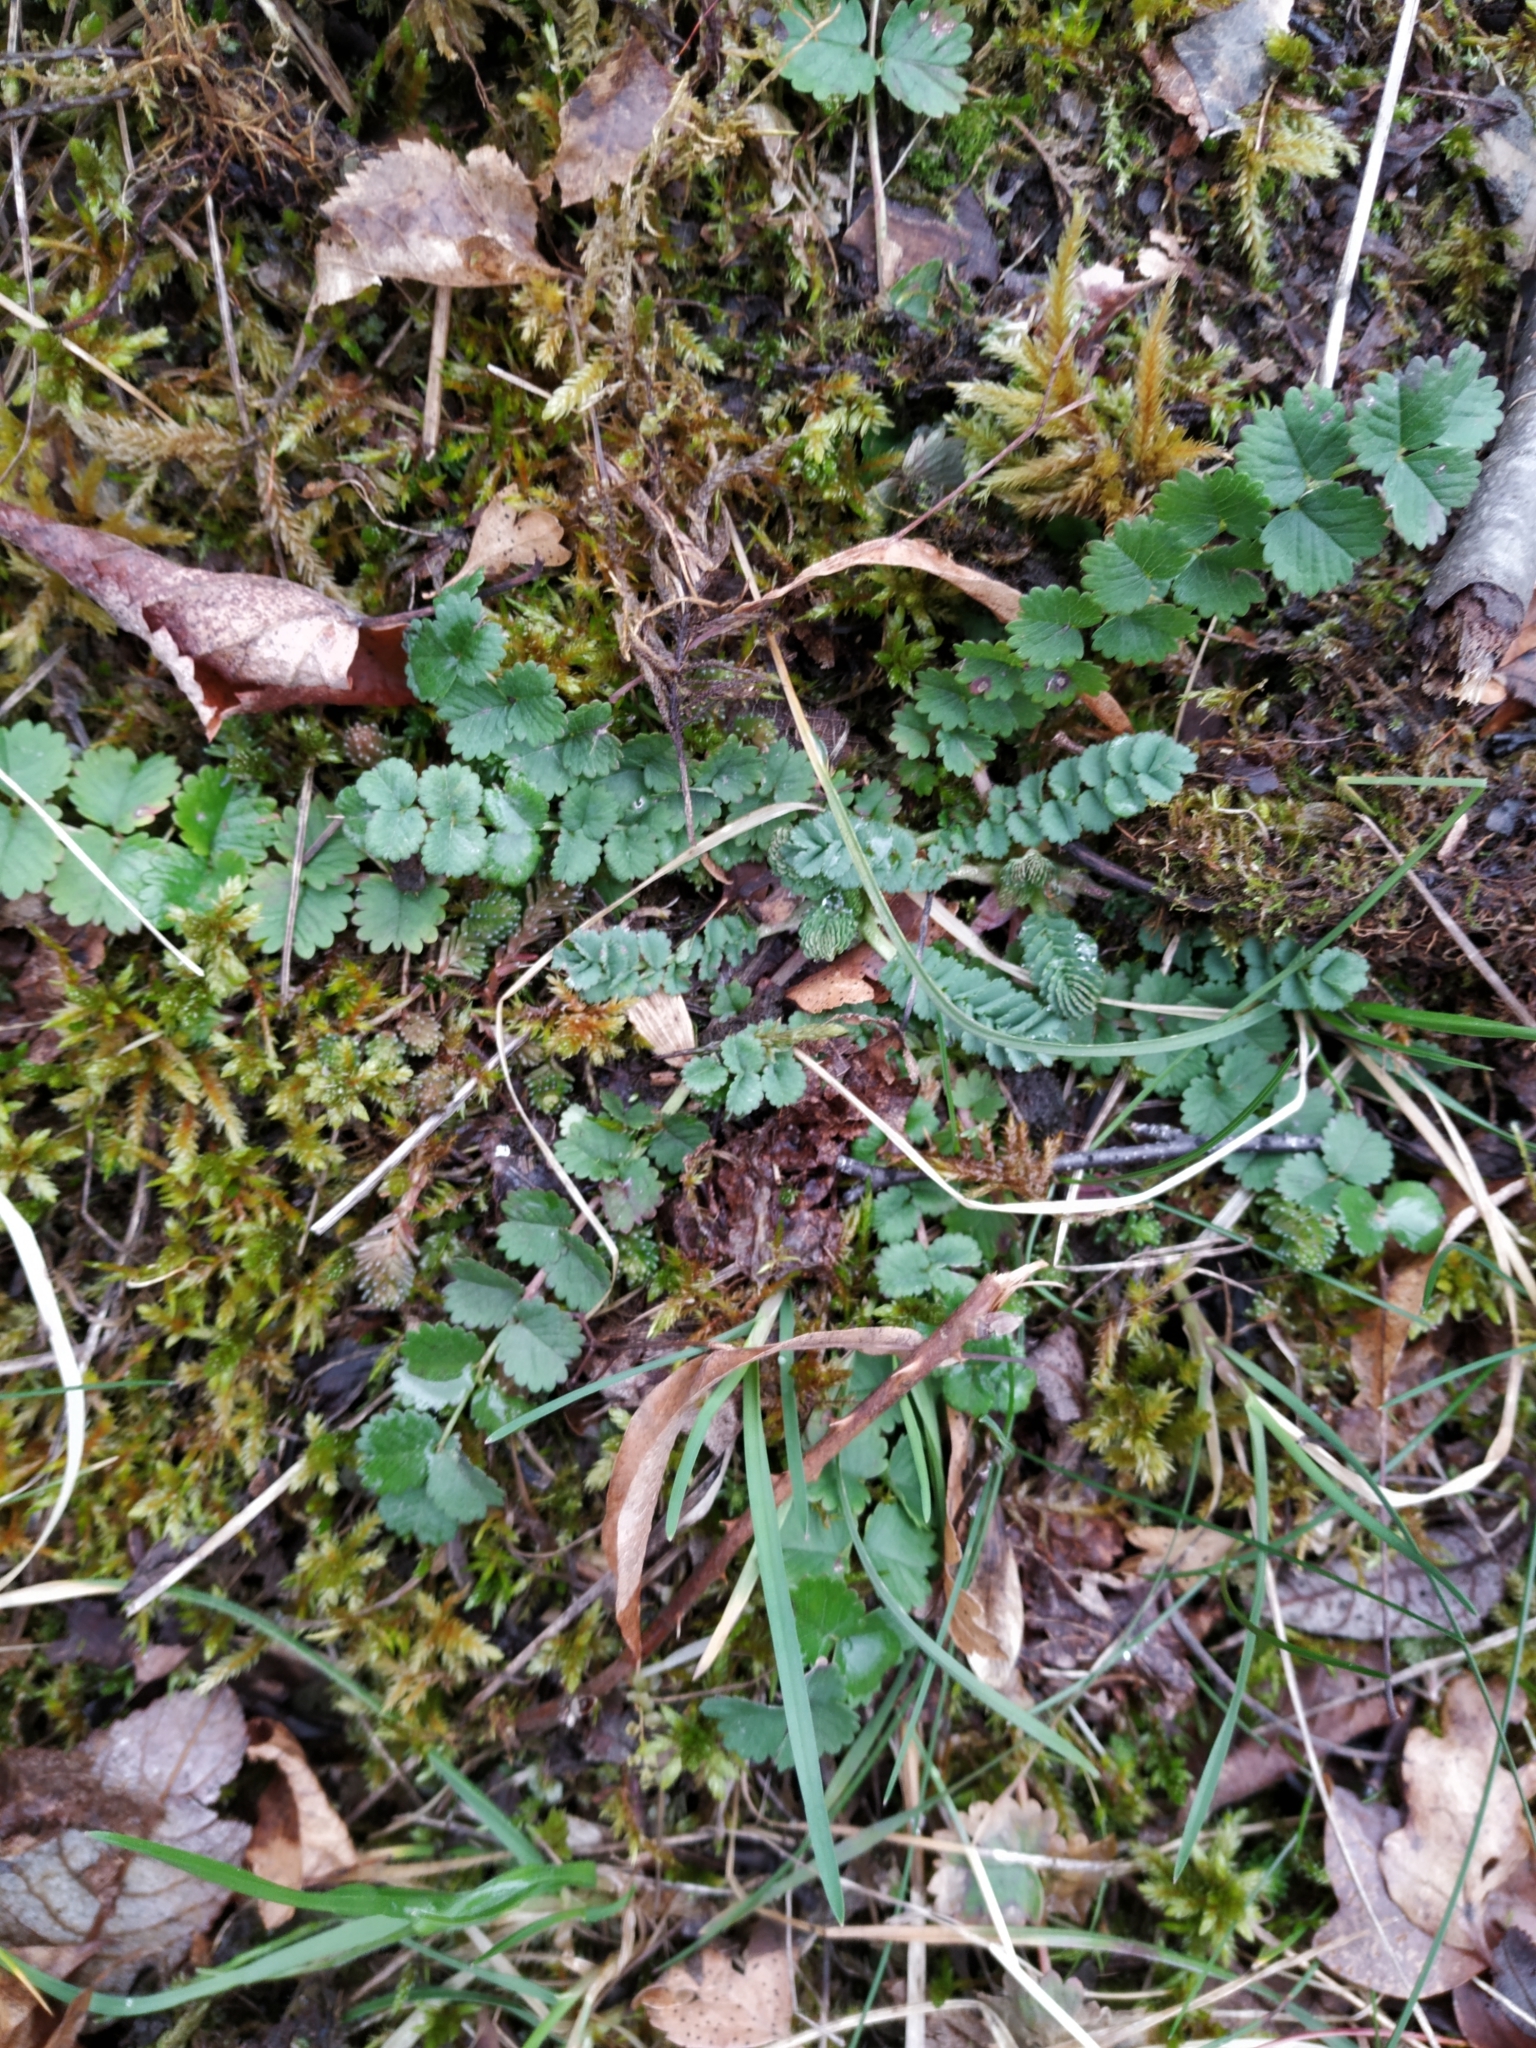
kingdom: Plantae
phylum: Tracheophyta
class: Magnoliopsida
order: Rosales
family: Rosaceae
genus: Poterium
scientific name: Poterium sanguisorba
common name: Salad burnet
